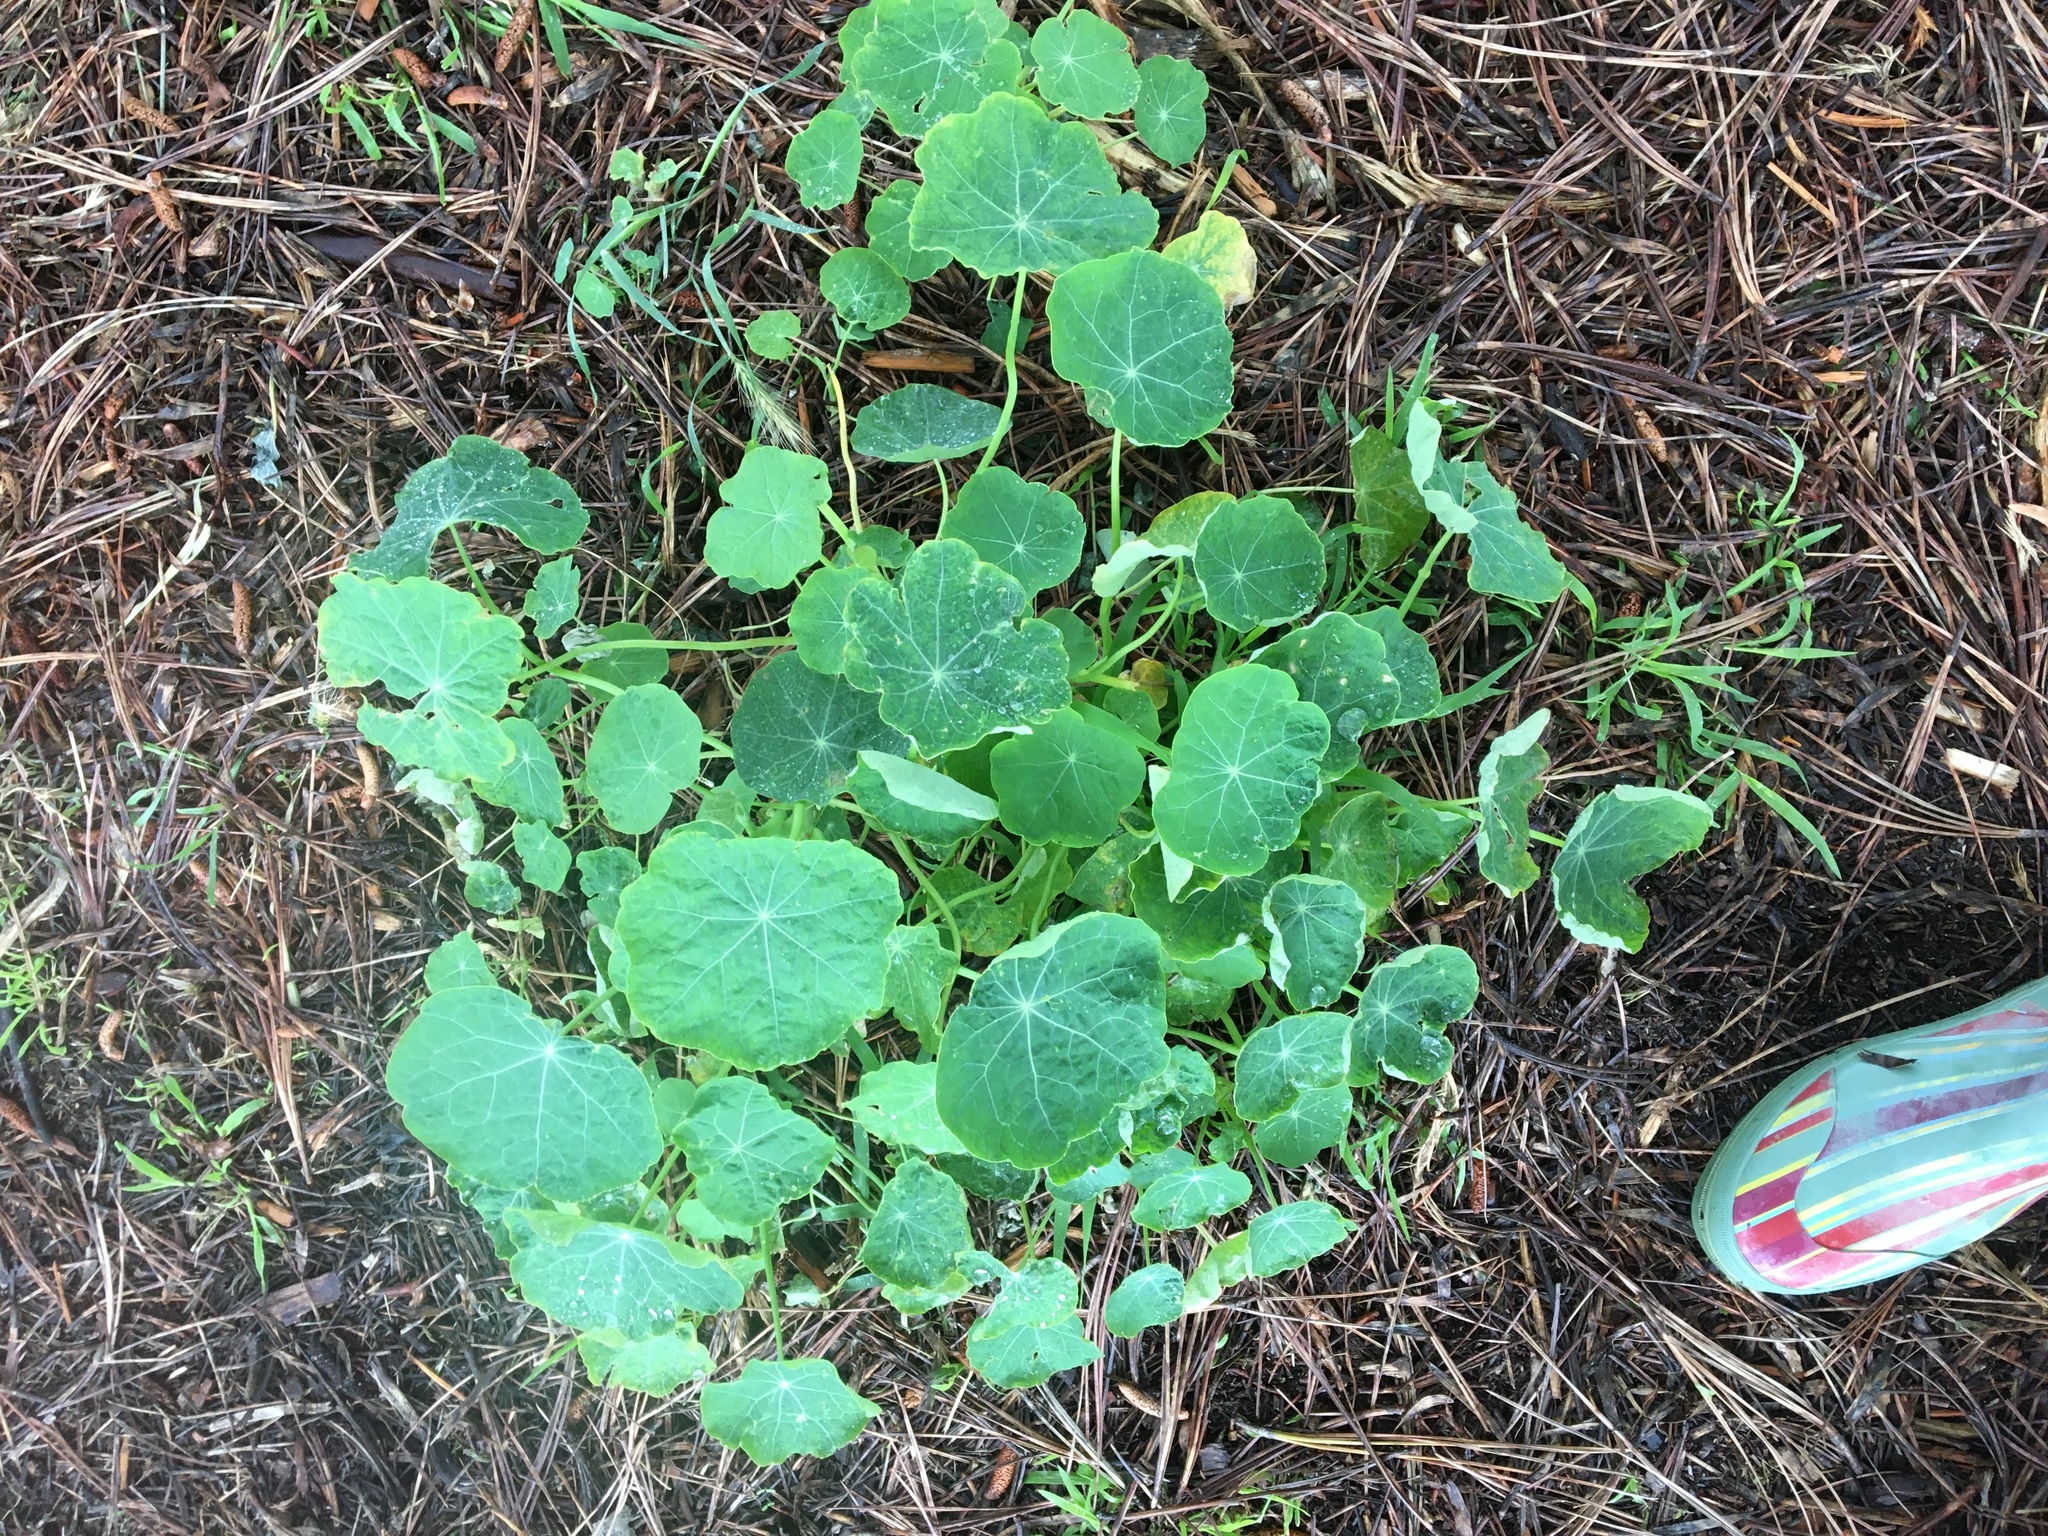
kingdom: Plantae
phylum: Tracheophyta
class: Magnoliopsida
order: Brassicales
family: Tropaeolaceae
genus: Tropaeolum
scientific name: Tropaeolum majus
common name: Nasturtium
